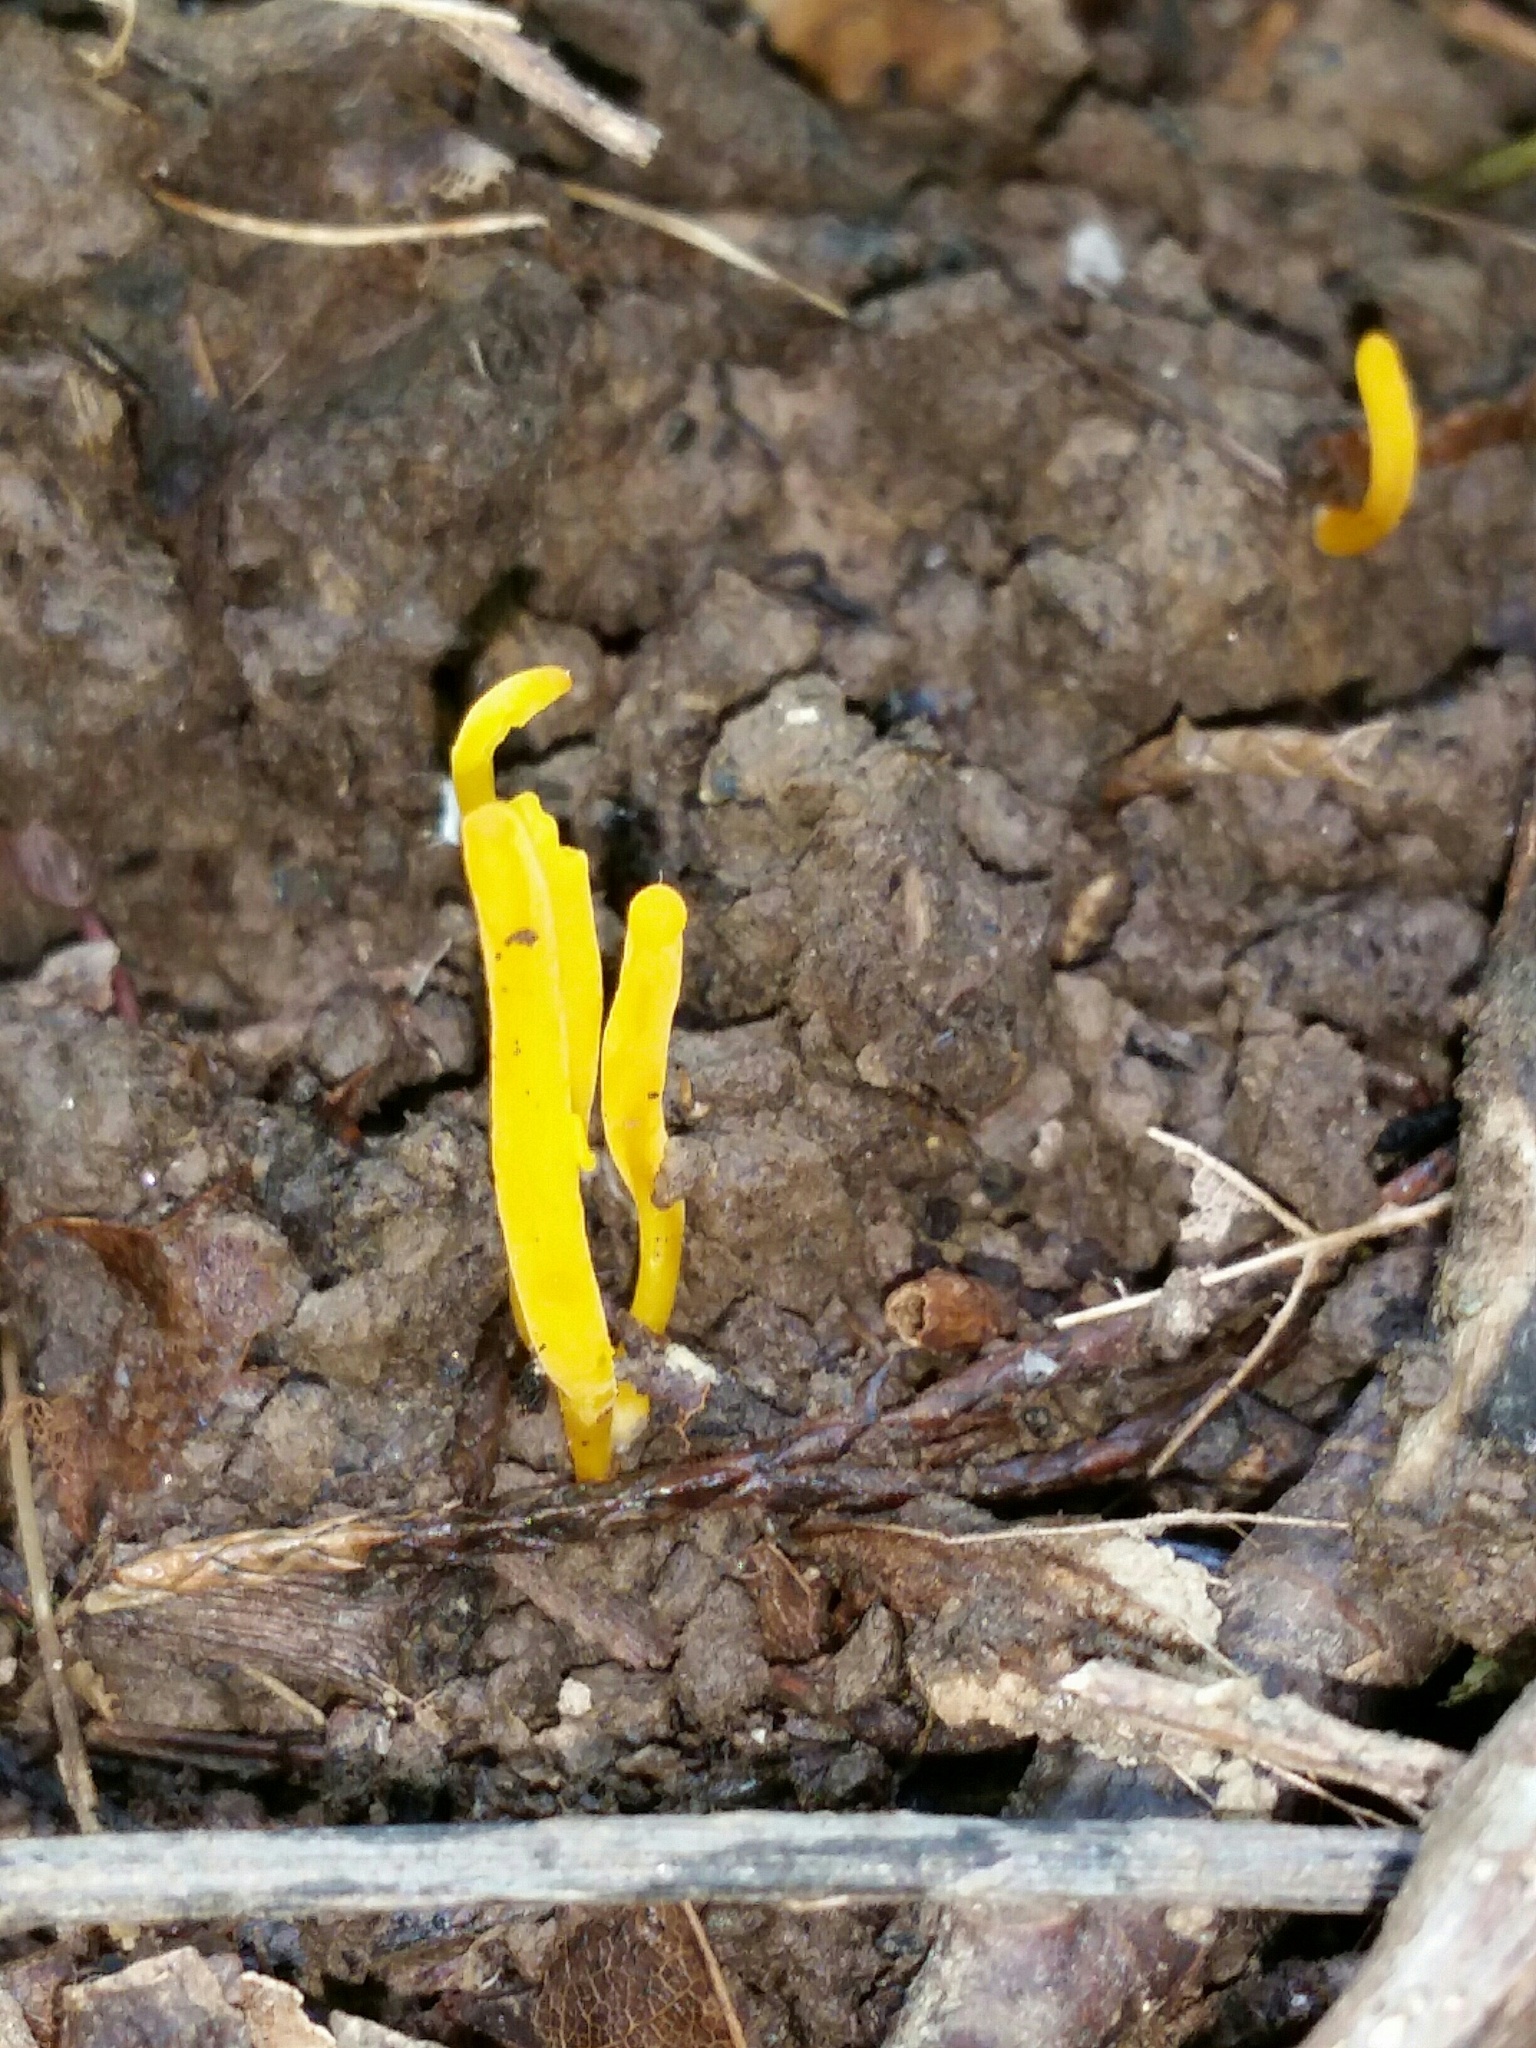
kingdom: Fungi
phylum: Basidiomycota
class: Agaricomycetes
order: Agaricales
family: Clavariaceae
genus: Clavulinopsis
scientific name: Clavulinopsis laeticolor
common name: Handsome club
